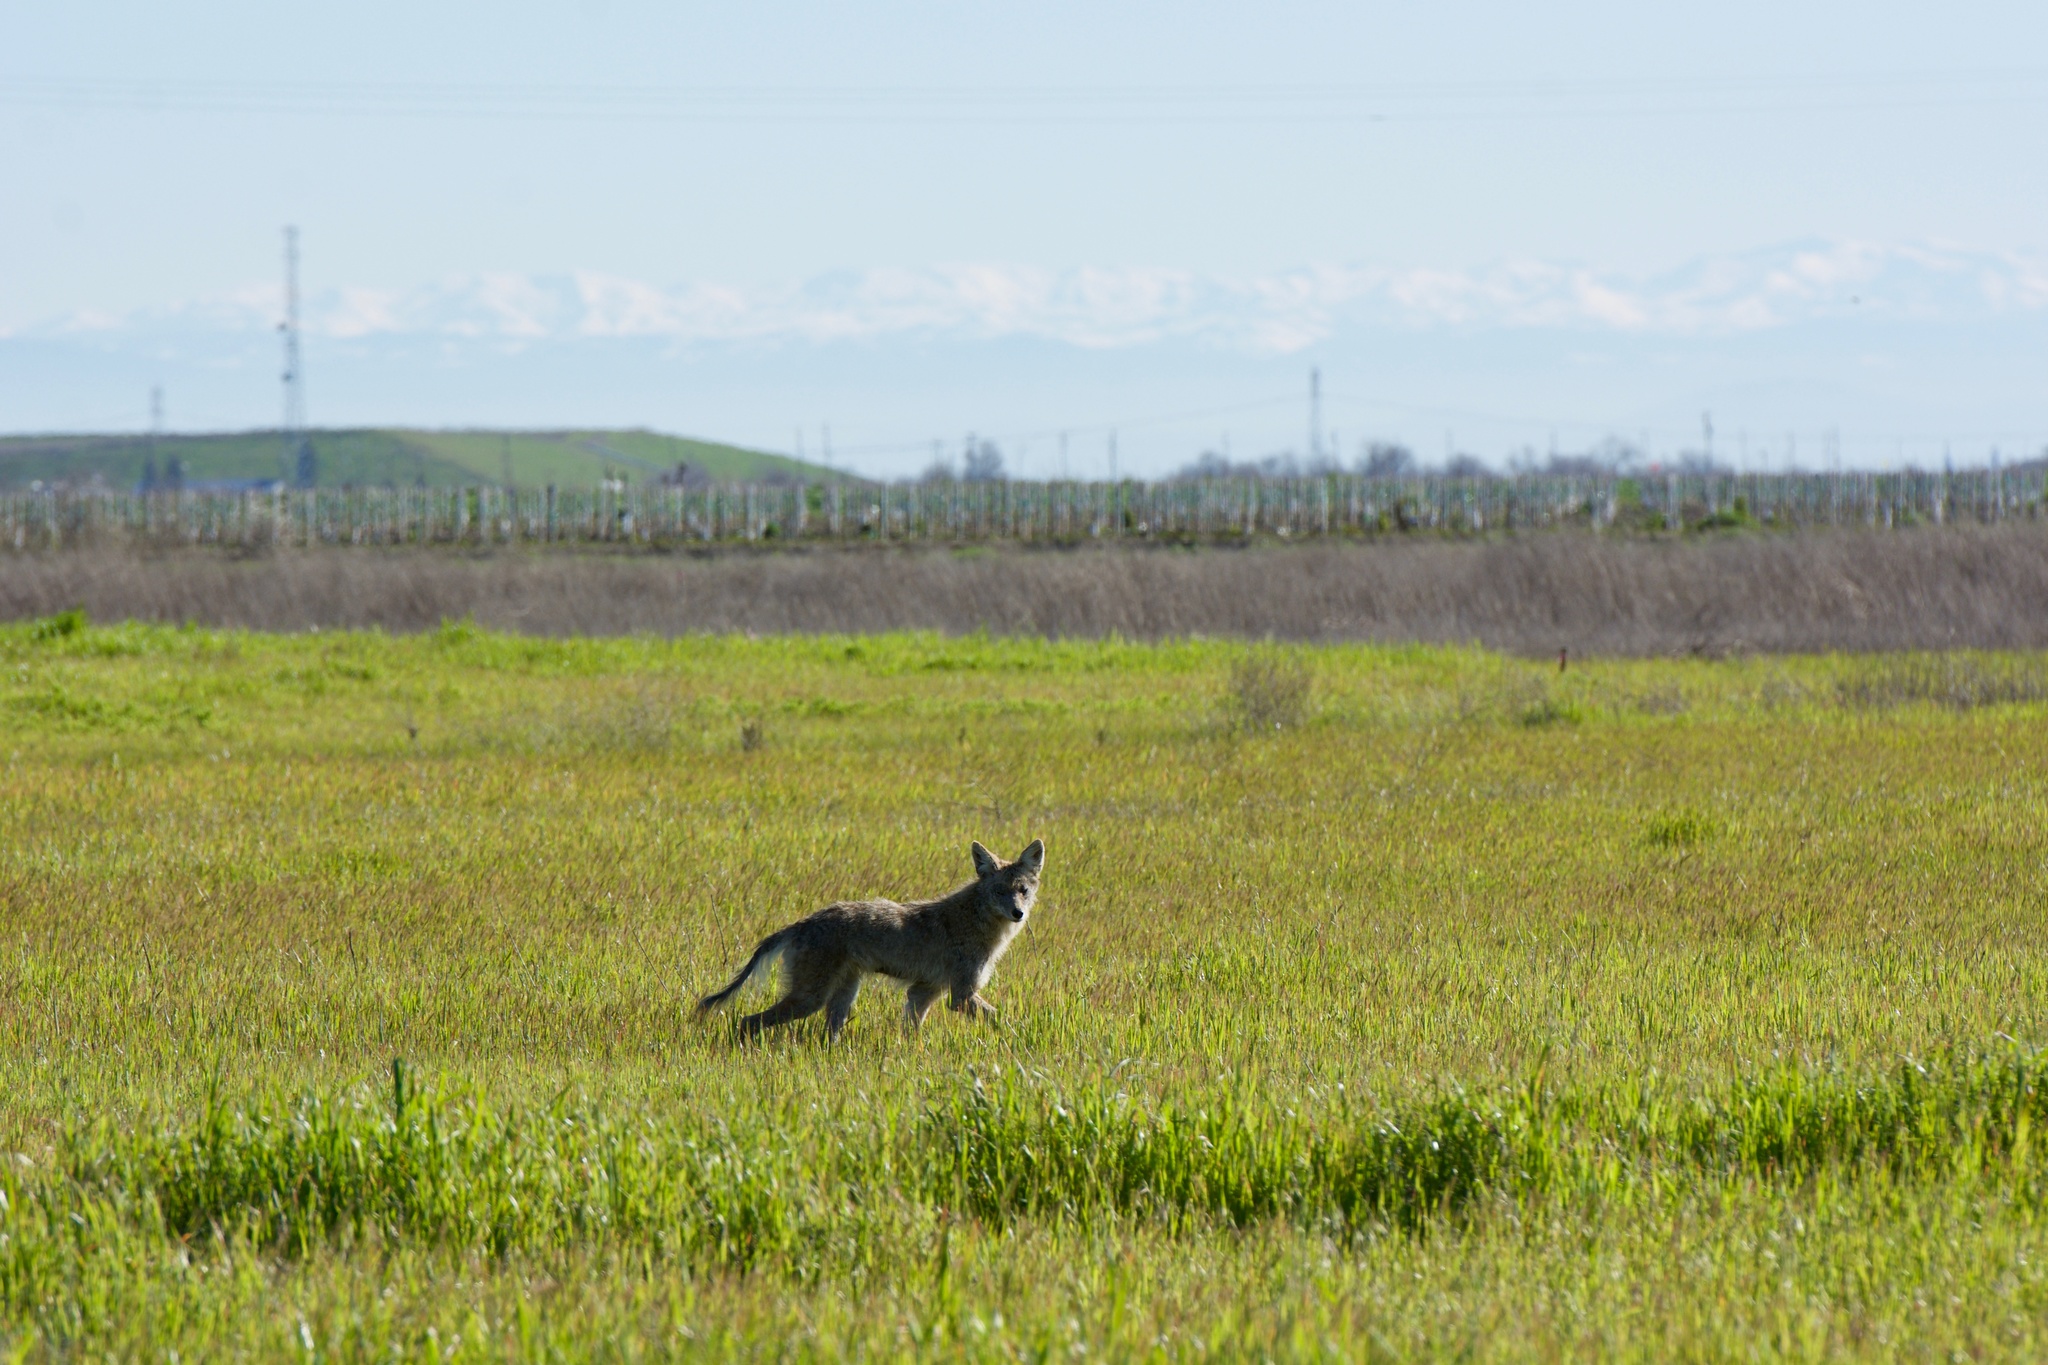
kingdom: Animalia
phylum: Chordata
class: Mammalia
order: Carnivora
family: Canidae
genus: Canis
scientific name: Canis latrans
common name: Coyote
